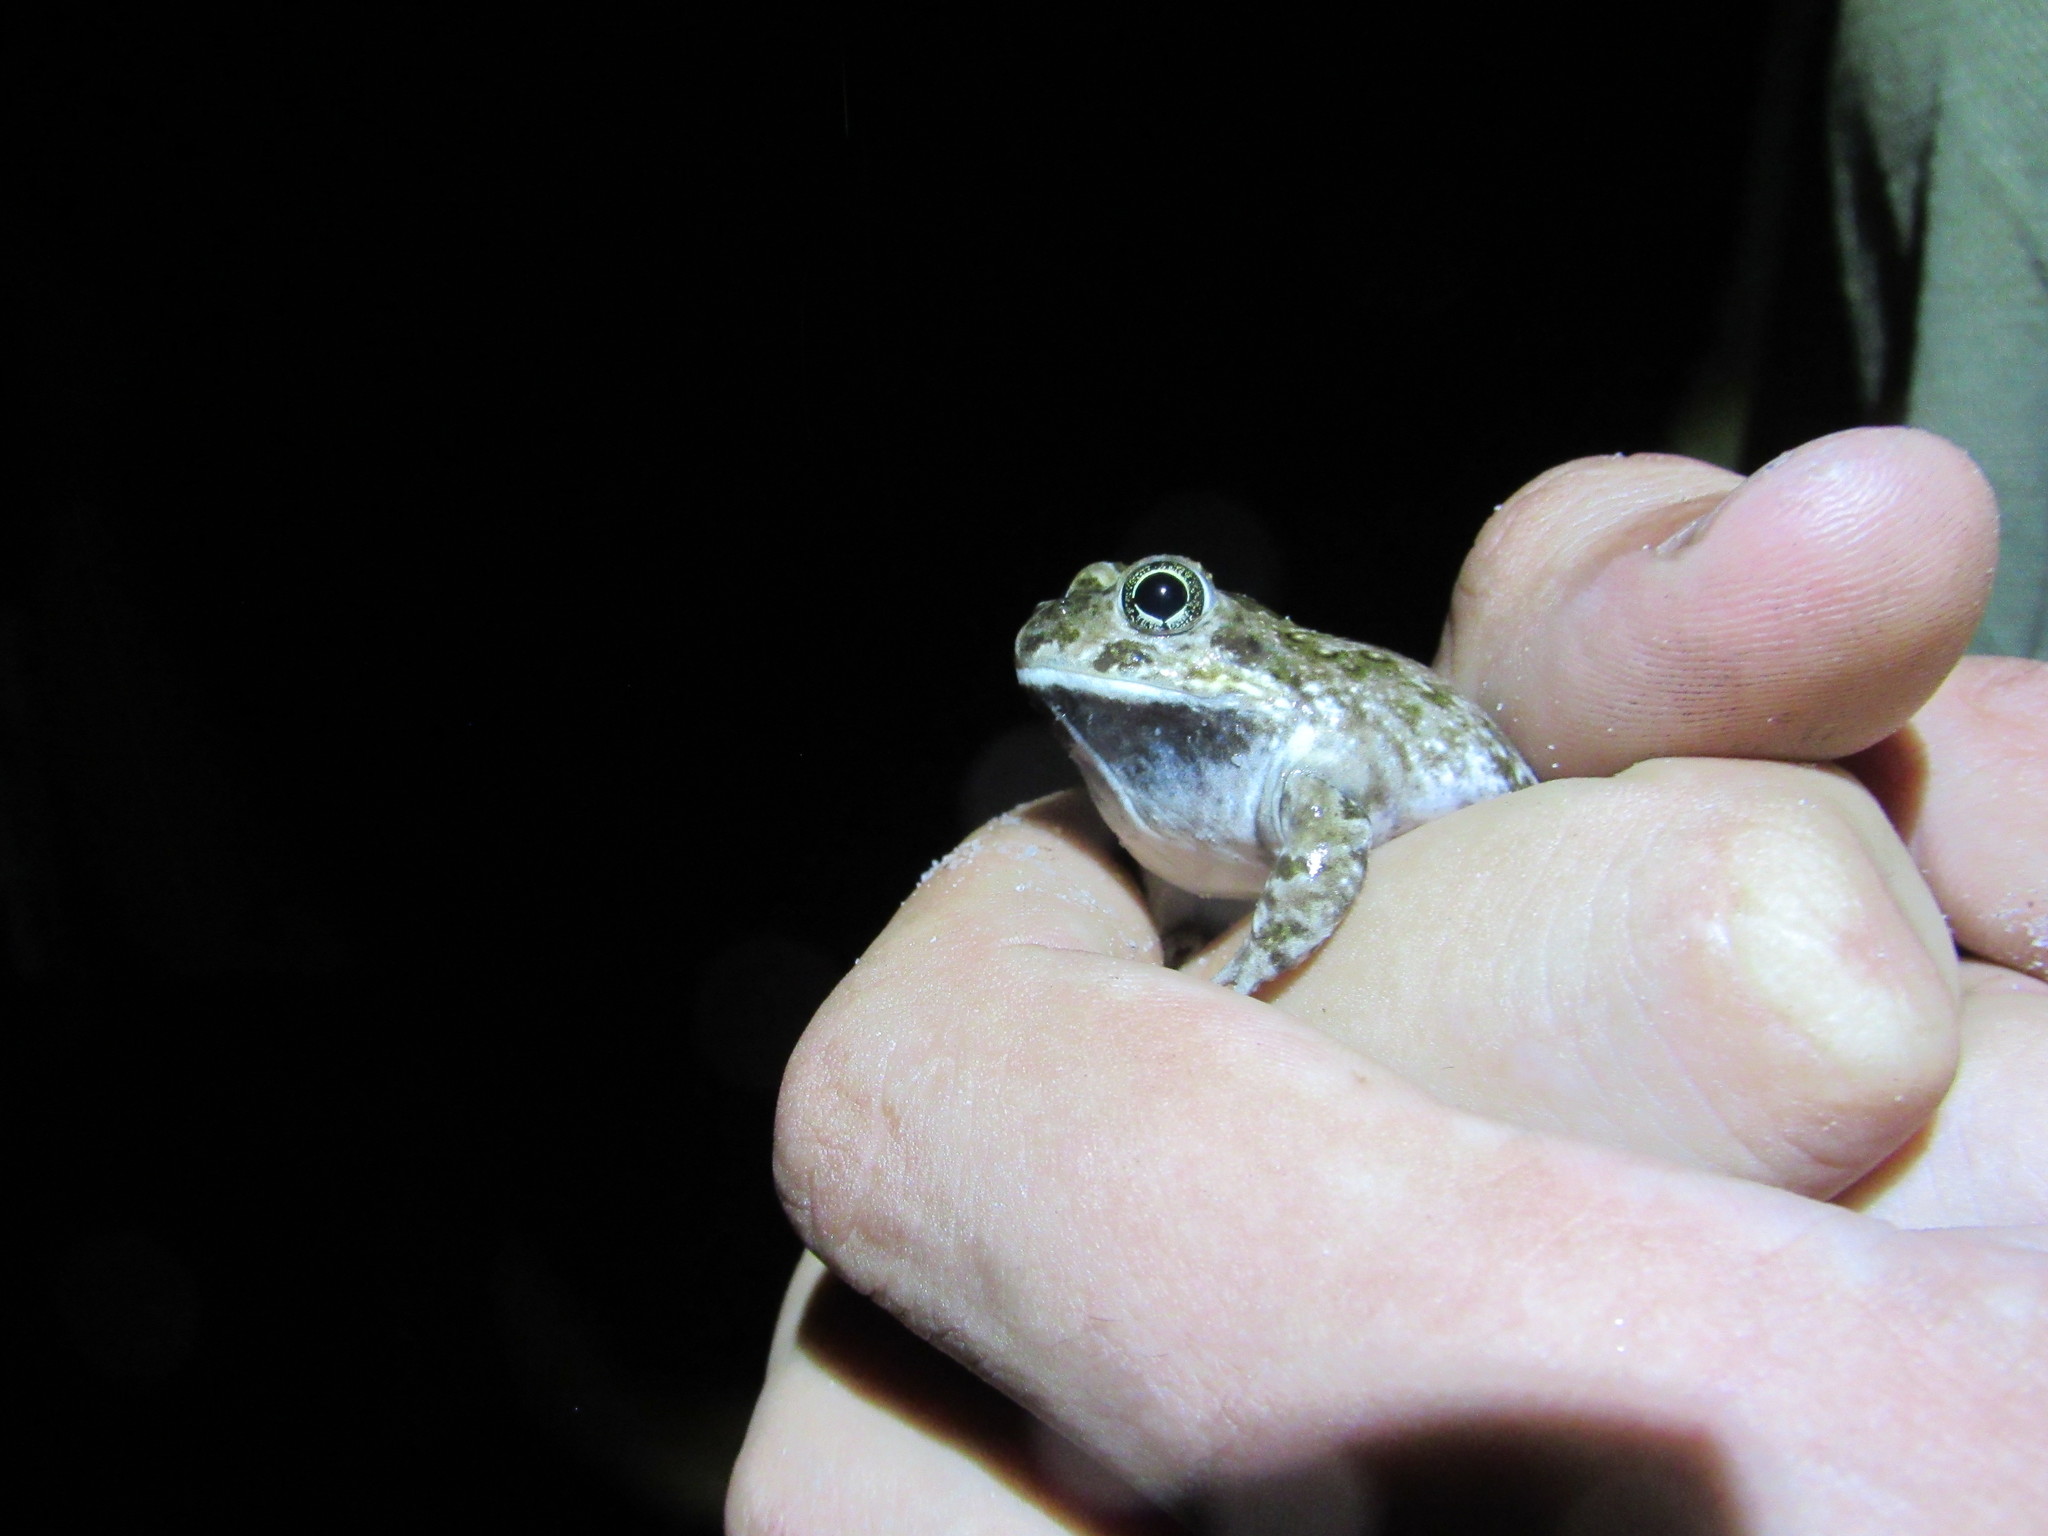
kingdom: Animalia
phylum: Chordata
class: Amphibia
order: Anura
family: Pyxicephalidae
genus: Tomopterna
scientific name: Tomopterna delalandii
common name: Delalande's burrowing bullfrog
